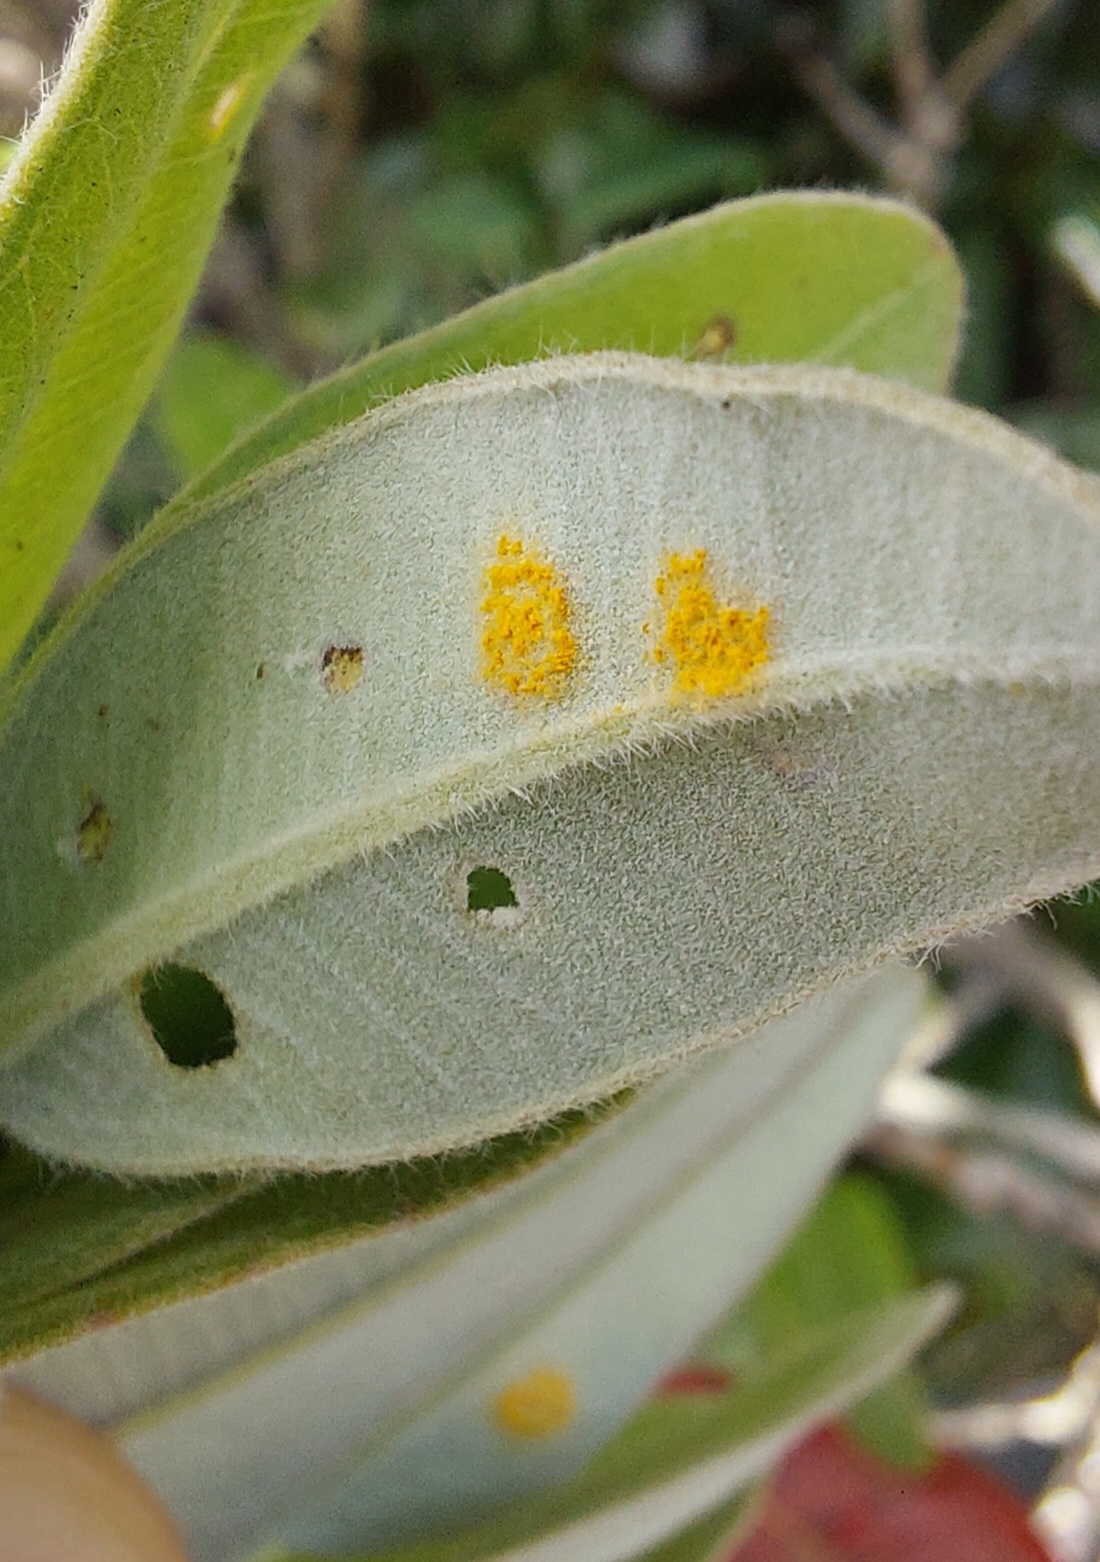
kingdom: Fungi
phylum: Basidiomycota
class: Pucciniomycetes
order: Pucciniales
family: Sphaerophragmiaceae
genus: Austropuccinia
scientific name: Austropuccinia psidii
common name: Myrtle rust
